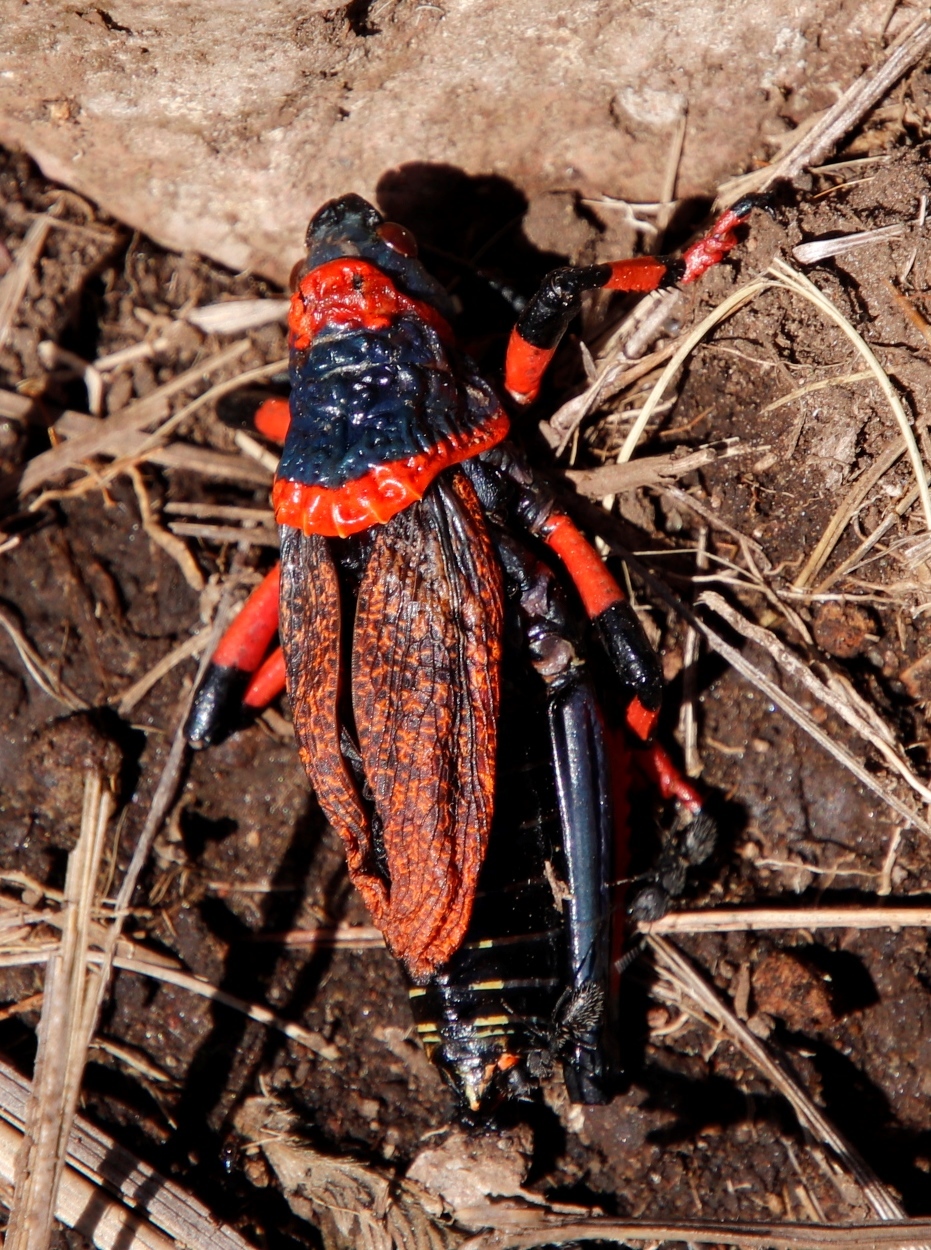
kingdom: Animalia
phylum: Arthropoda
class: Insecta
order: Orthoptera
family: Pyrgomorphidae
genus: Dictyophorus
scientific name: Dictyophorus spumans
